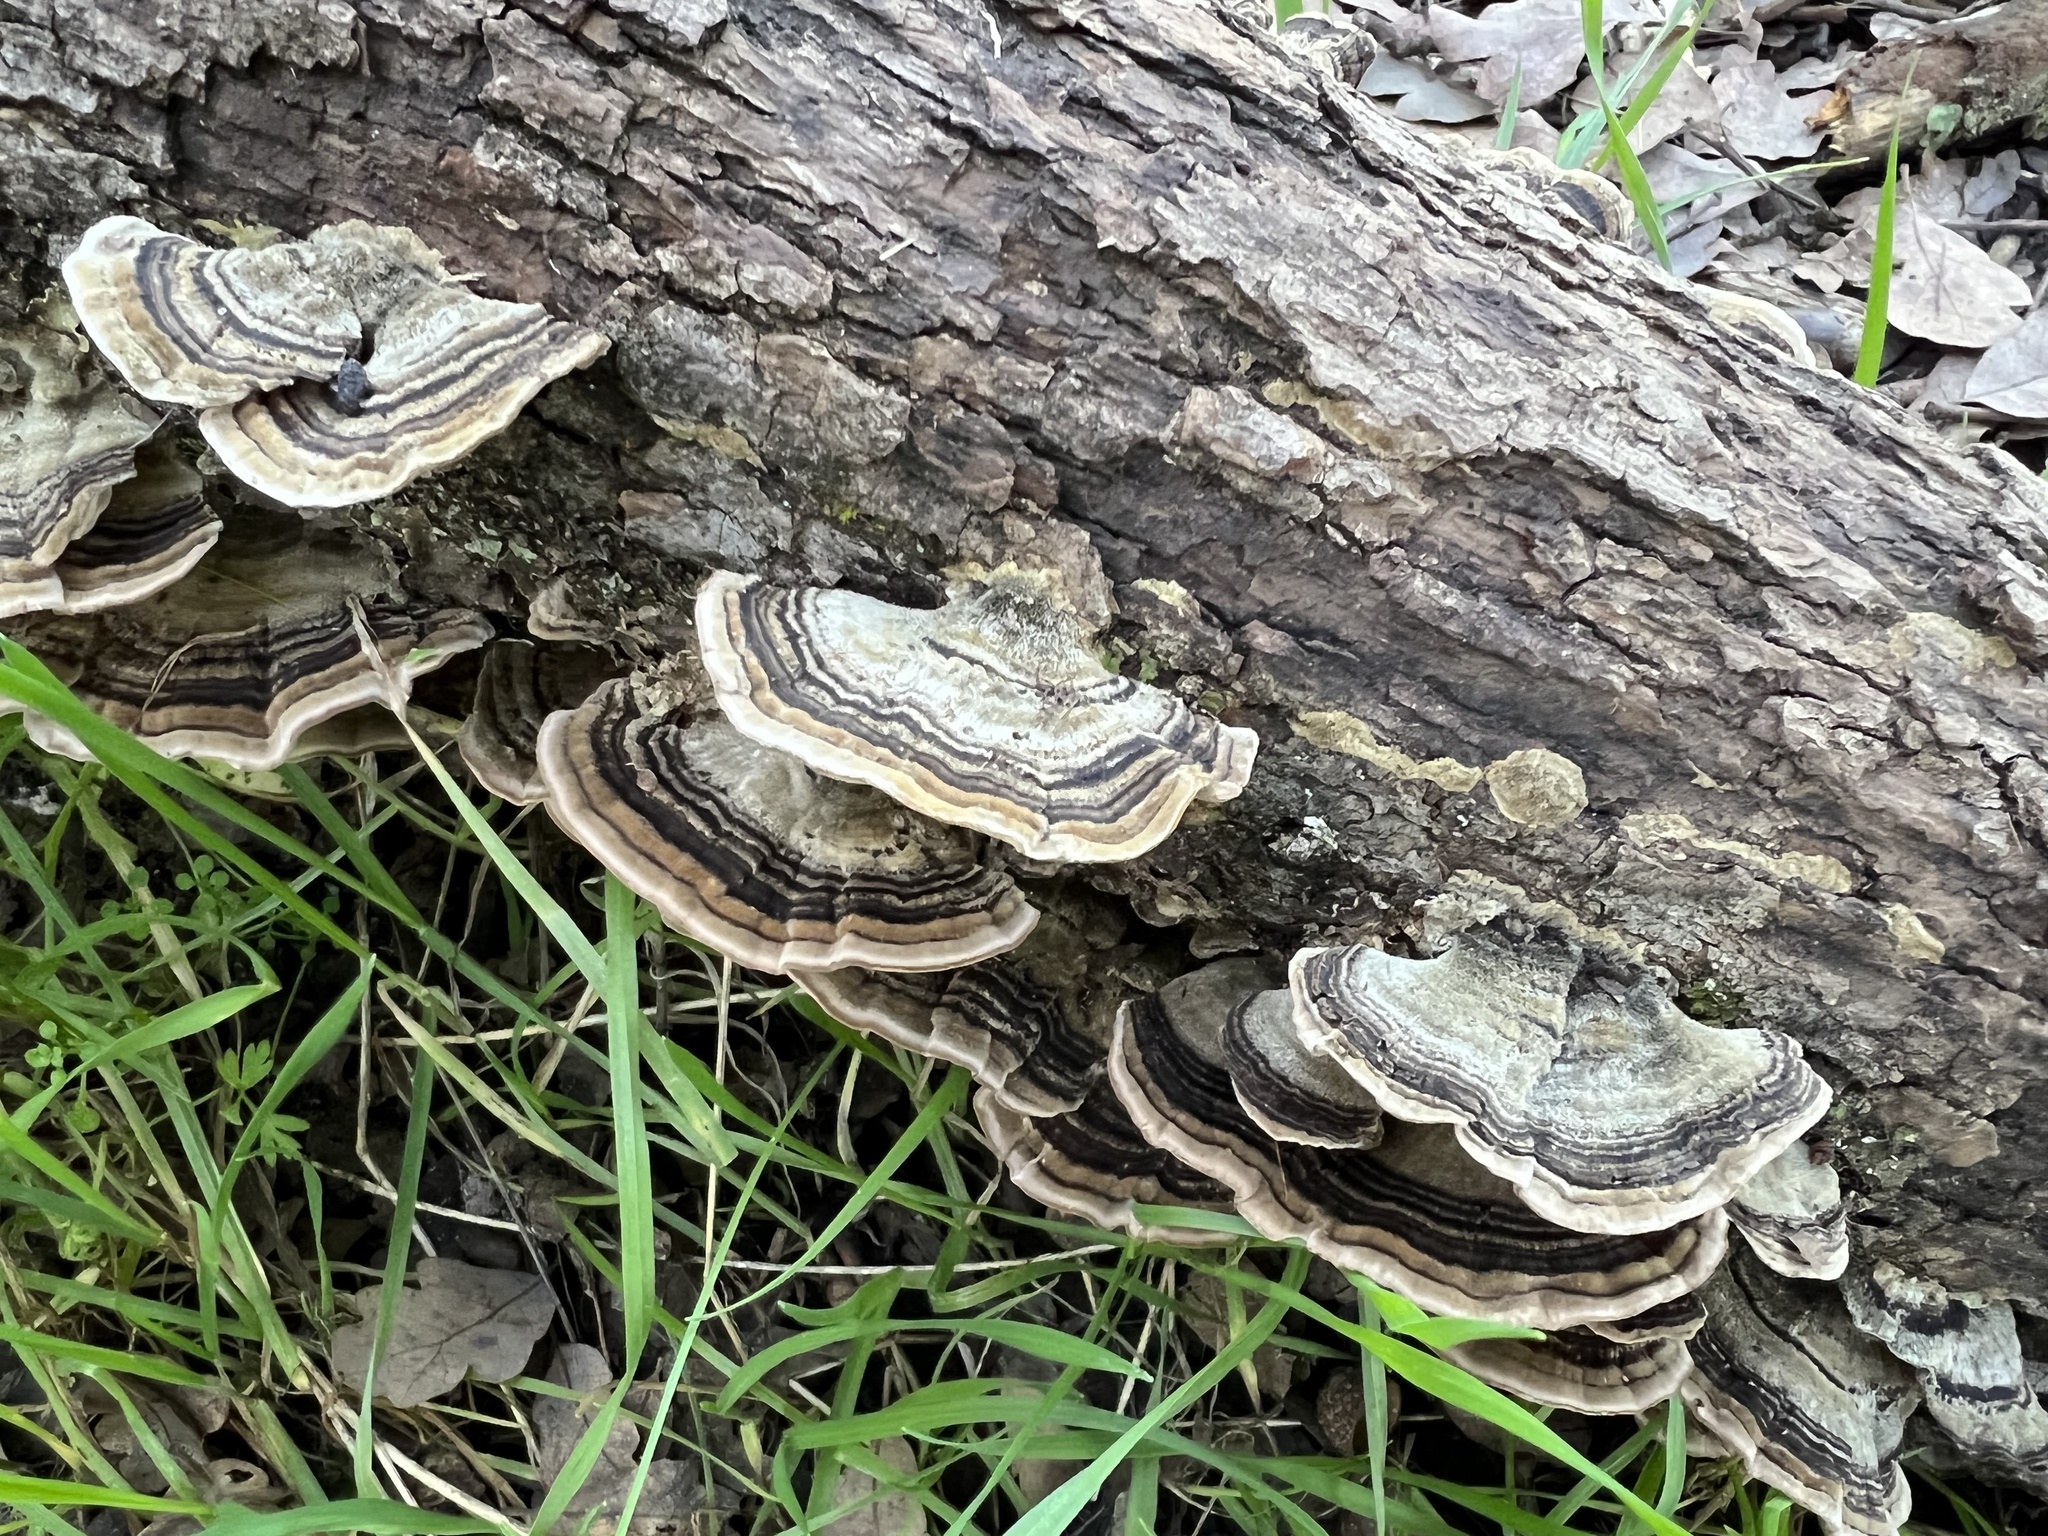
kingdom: Fungi
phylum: Basidiomycota
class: Agaricomycetes
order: Polyporales
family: Polyporaceae
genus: Trametes
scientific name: Trametes versicolor
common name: Turkeytail
